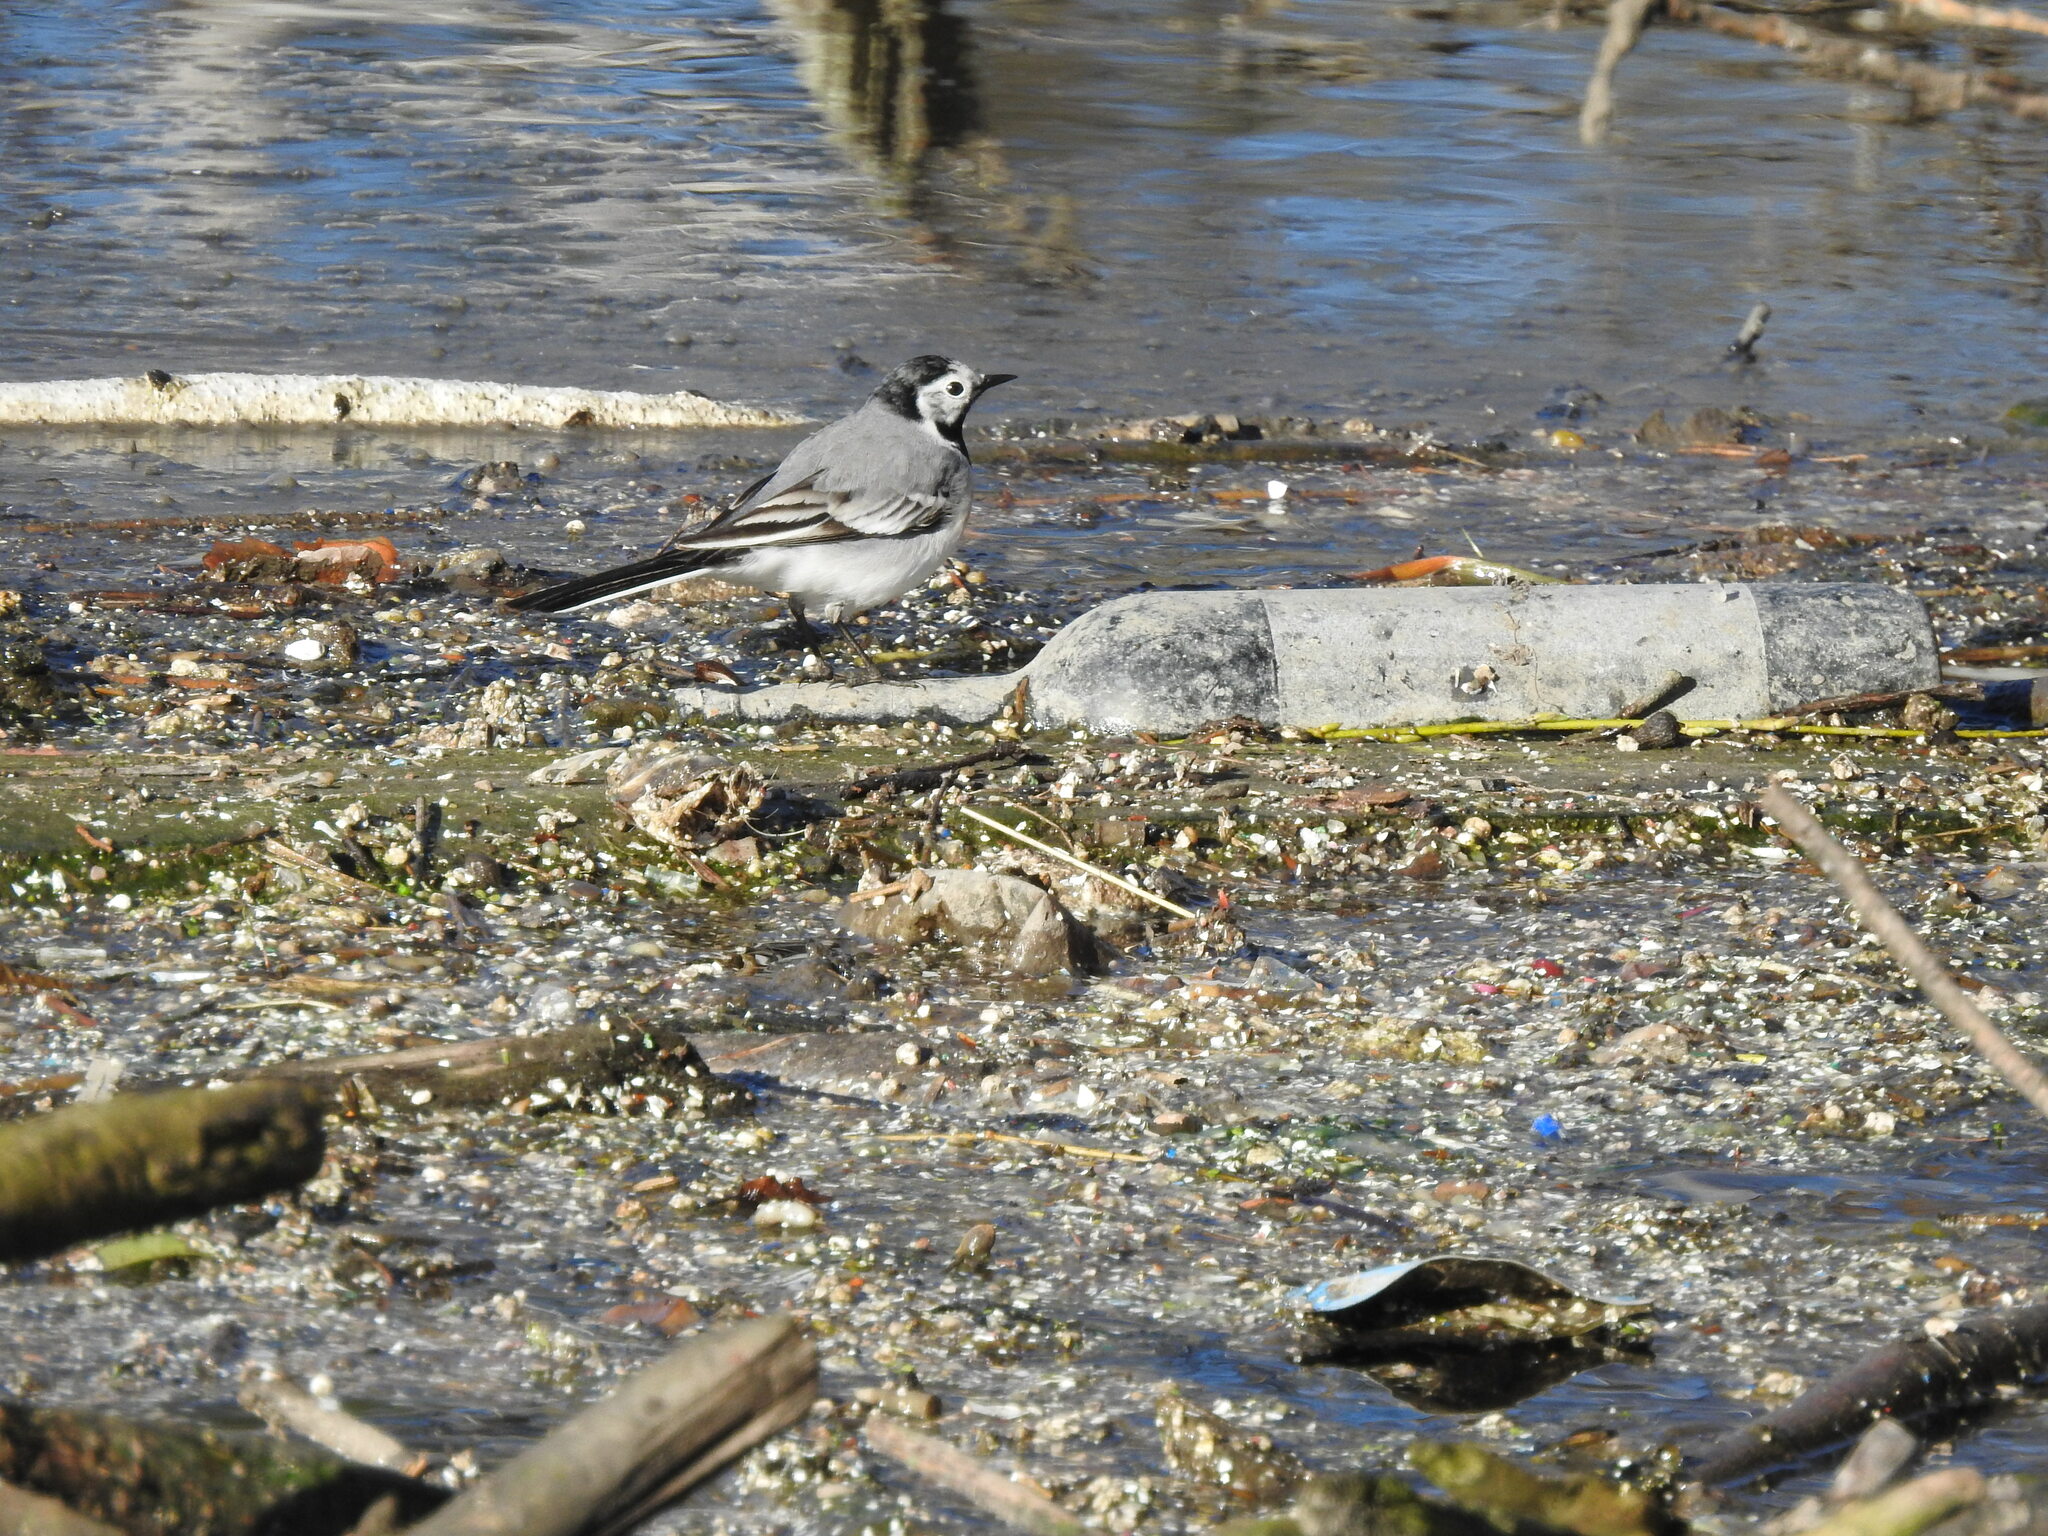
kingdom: Animalia
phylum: Chordata
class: Aves
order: Passeriformes
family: Motacillidae
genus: Motacilla
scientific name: Motacilla alba
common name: White wagtail
